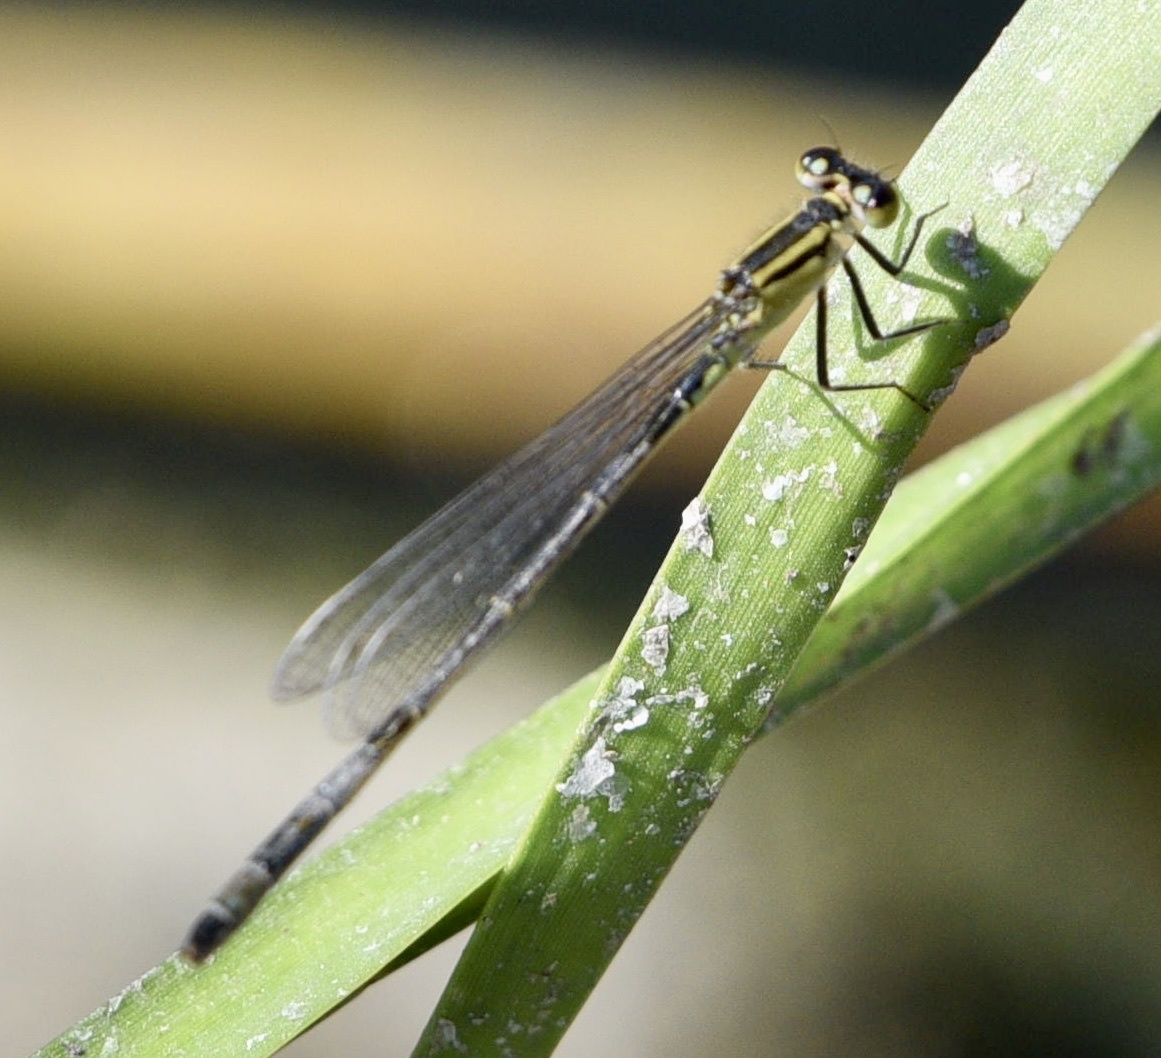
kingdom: Animalia
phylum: Arthropoda
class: Insecta
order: Odonata
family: Coenagrionidae
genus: Ischnura
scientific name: Ischnura elegans
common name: Blue-tailed damselfly
